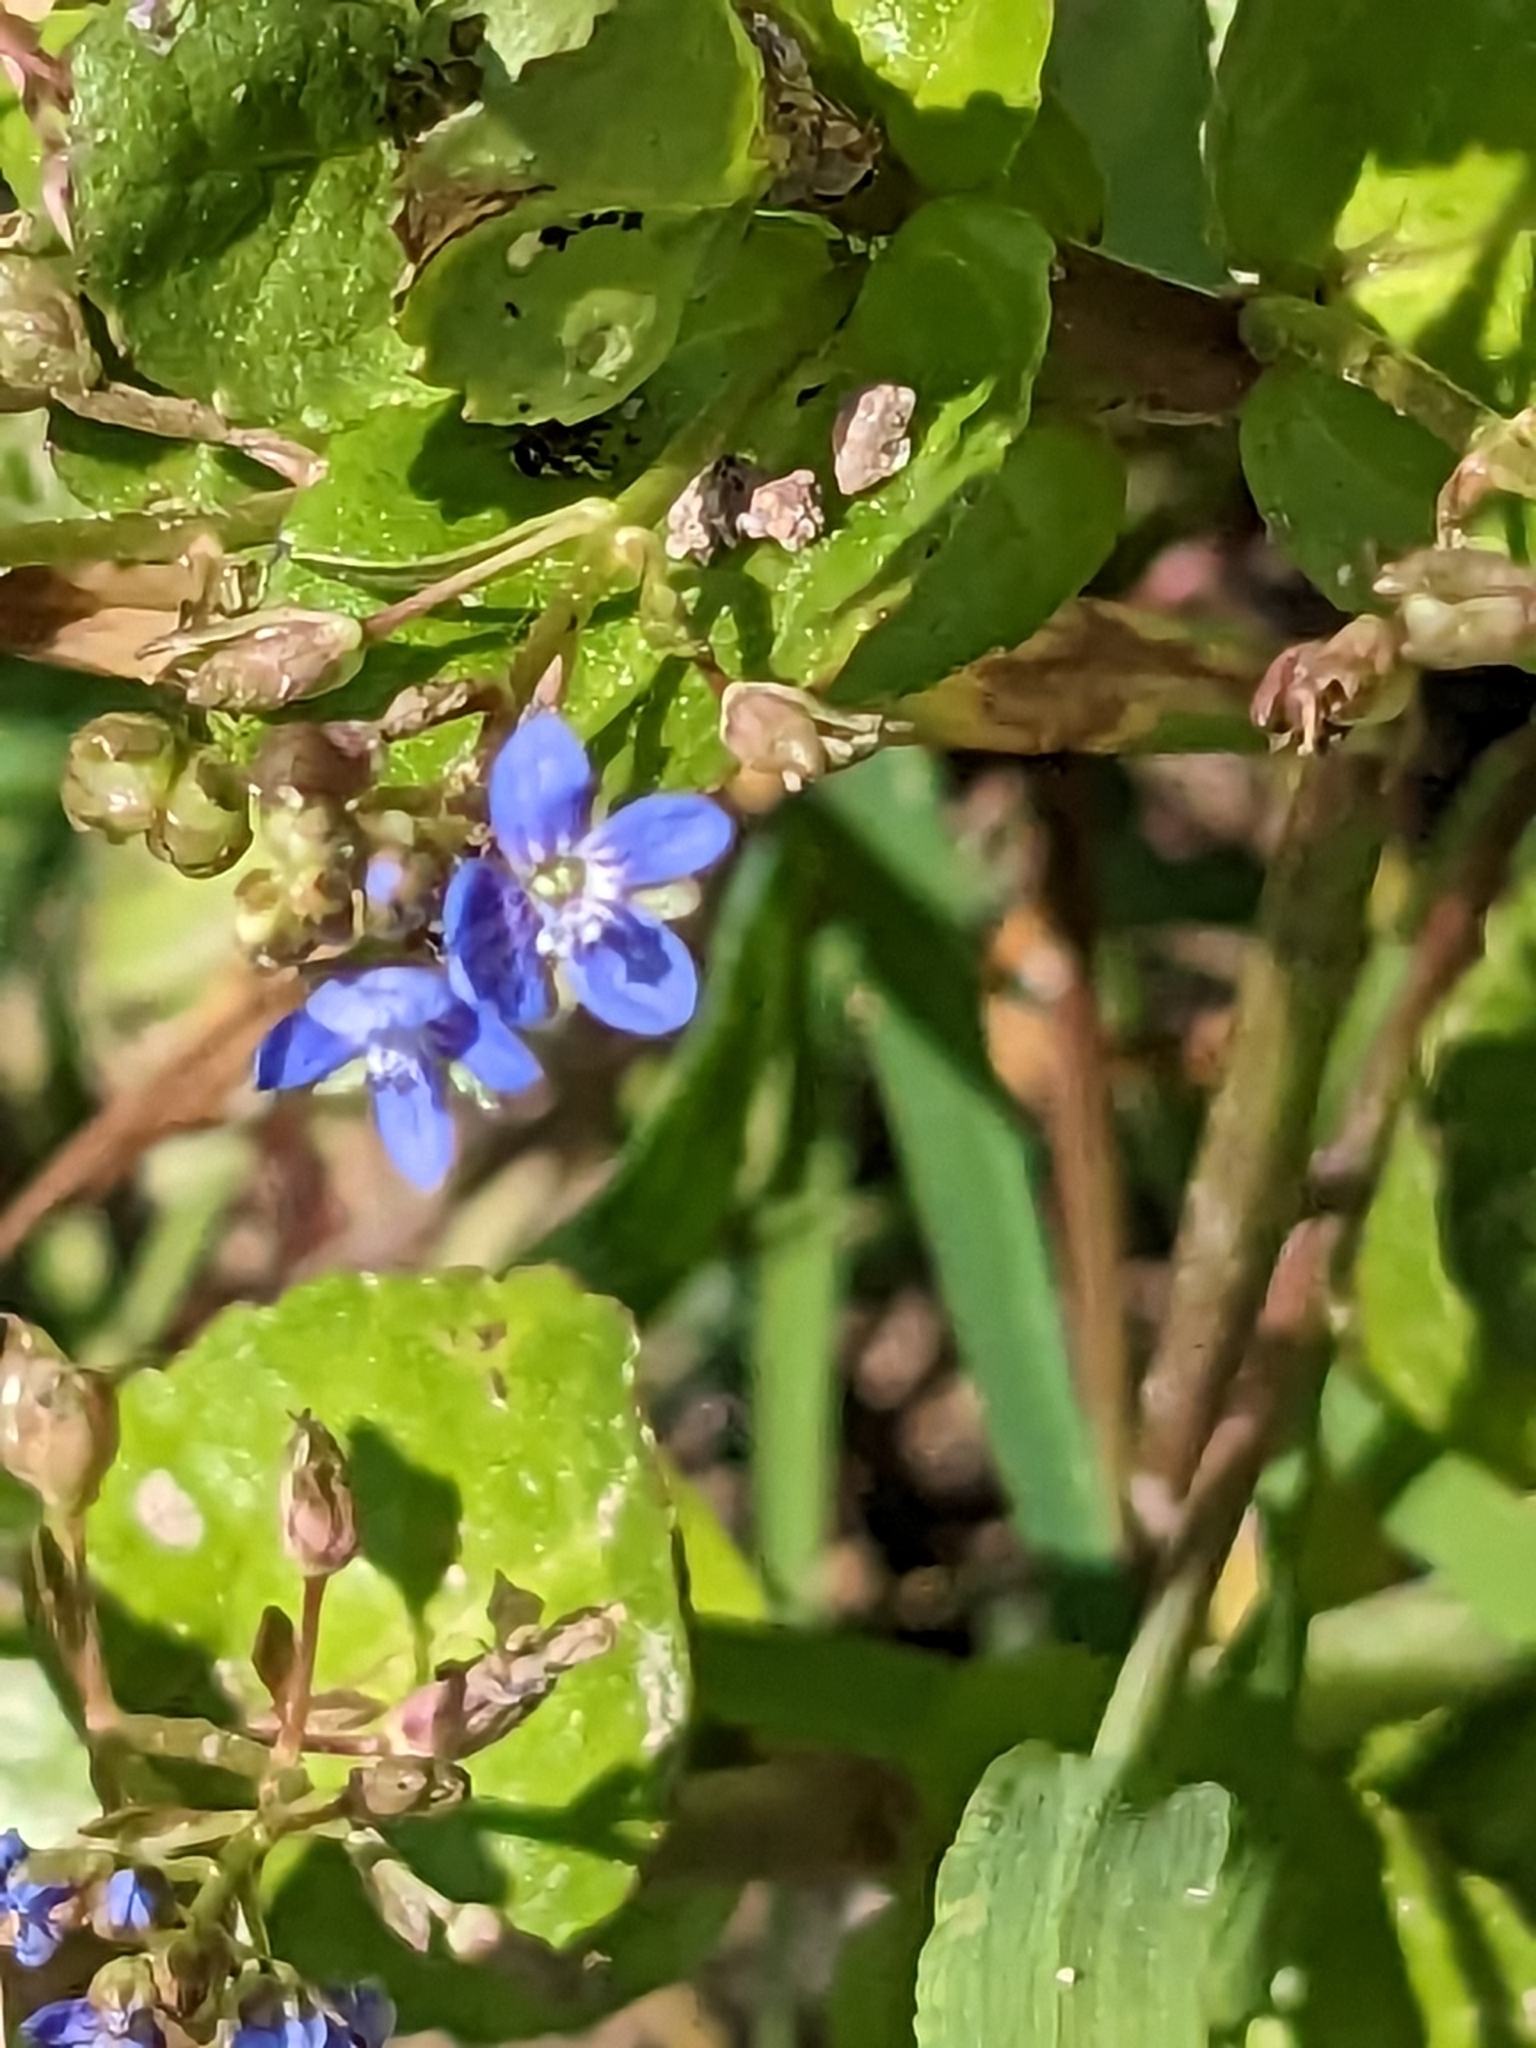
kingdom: Plantae
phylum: Tracheophyta
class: Magnoliopsida
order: Lamiales
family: Plantaginaceae
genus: Veronica
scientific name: Veronica beccabunga
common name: Brooklime
